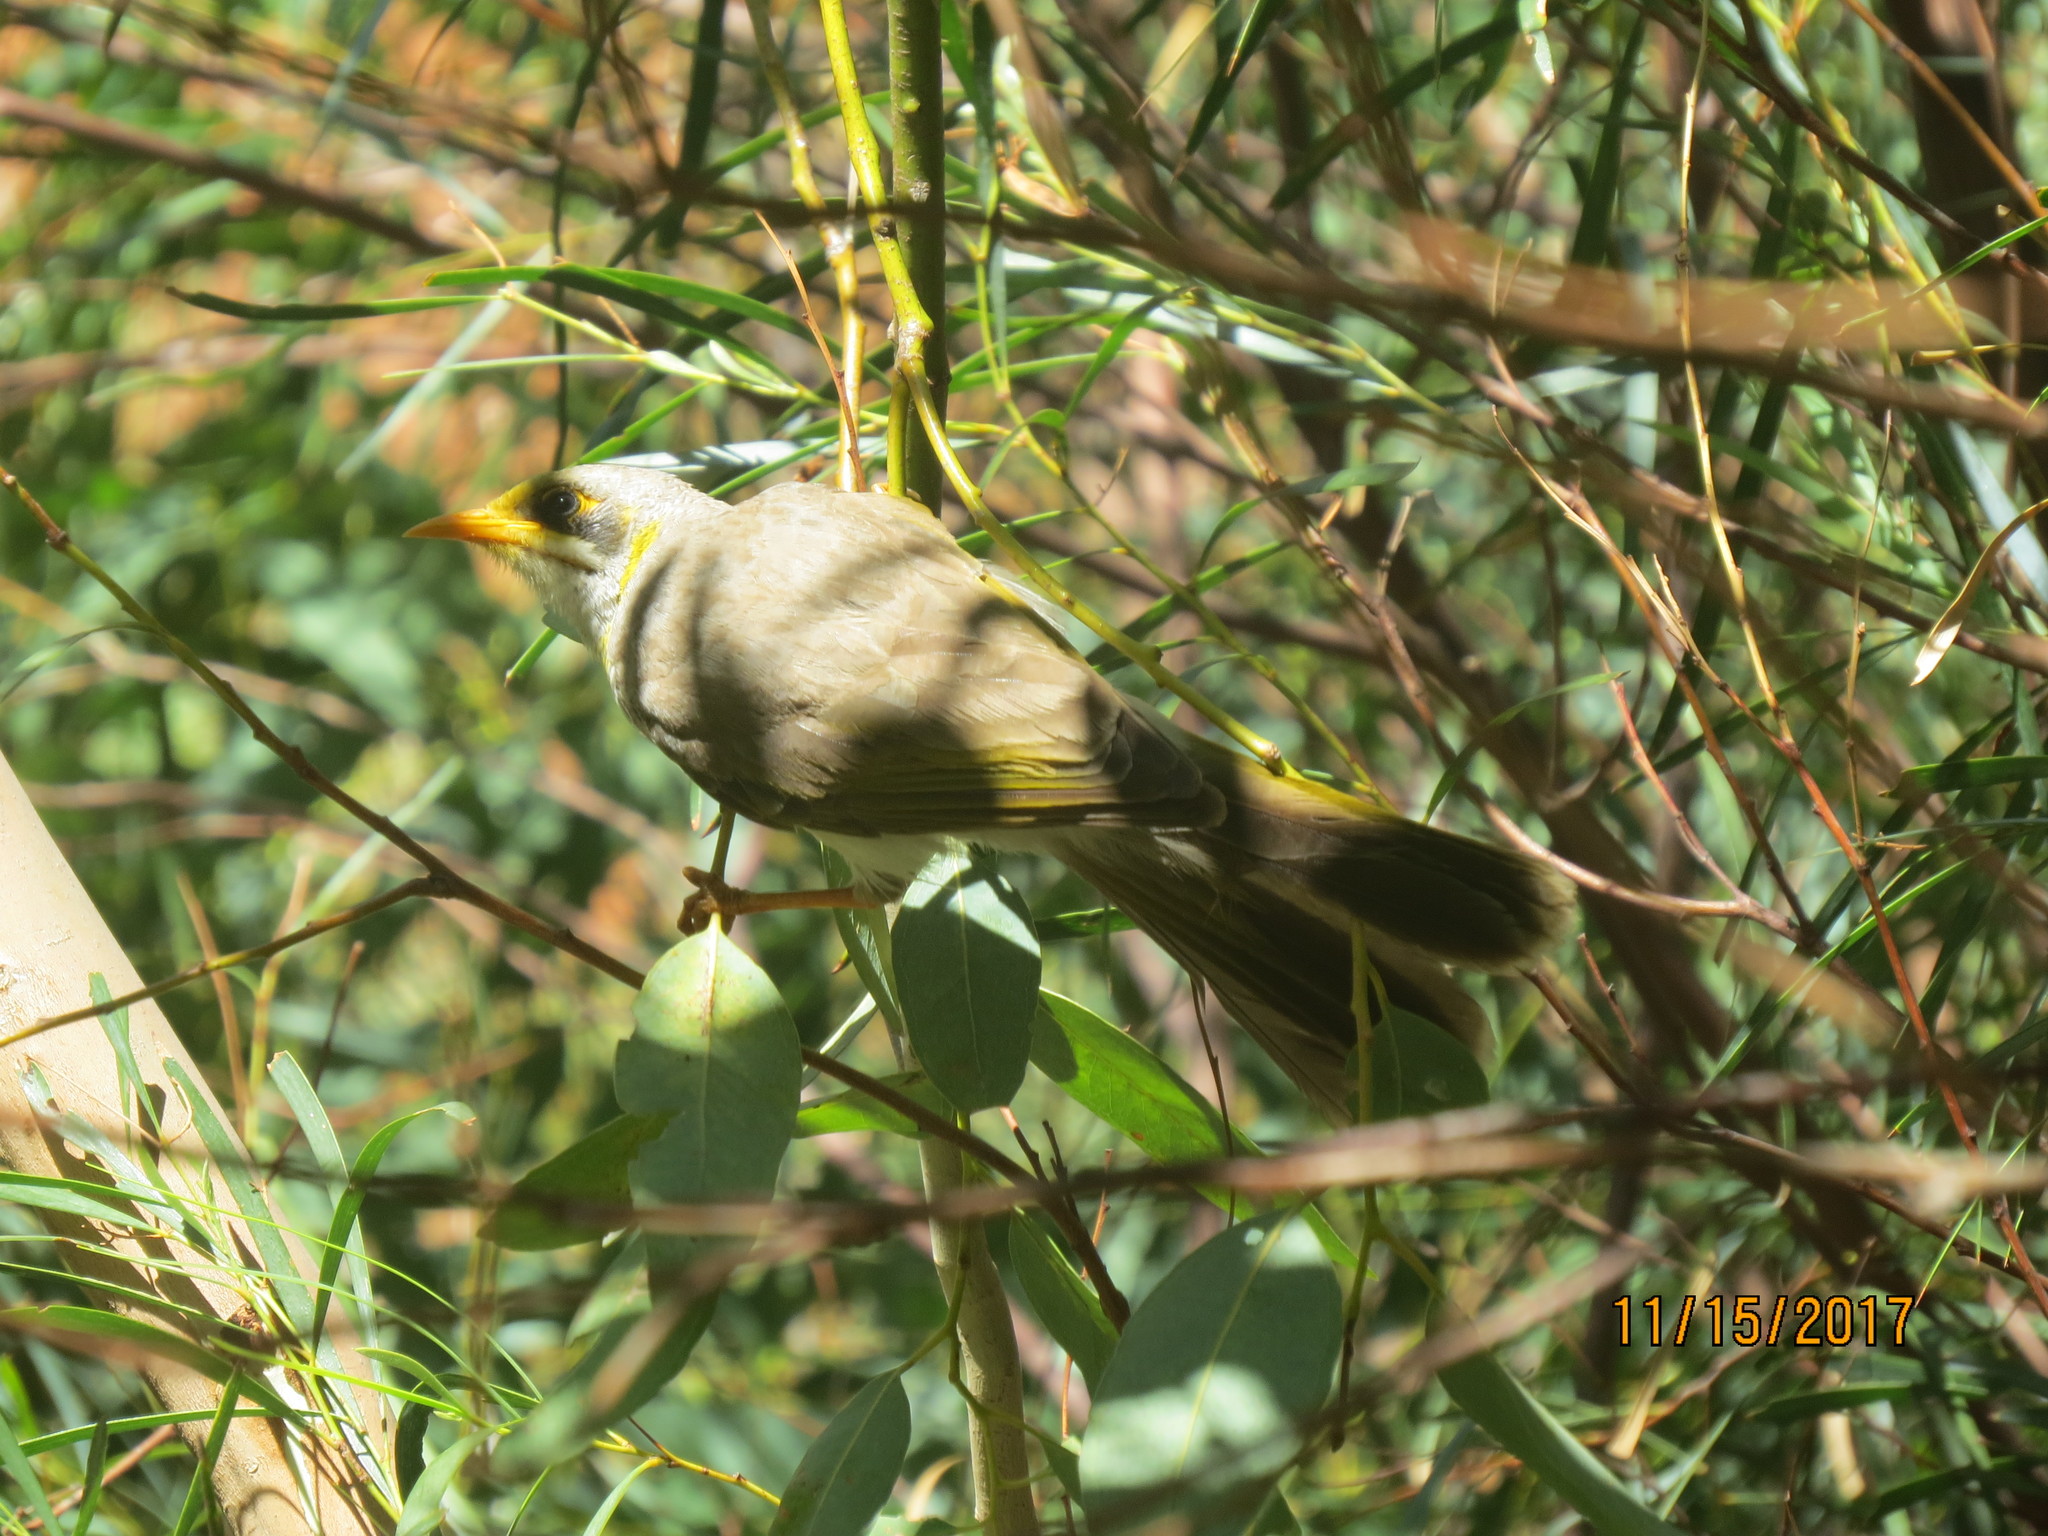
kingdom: Animalia
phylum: Chordata
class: Aves
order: Passeriformes
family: Meliphagidae
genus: Manorina
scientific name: Manorina flavigula
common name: Yellow-throated miner
